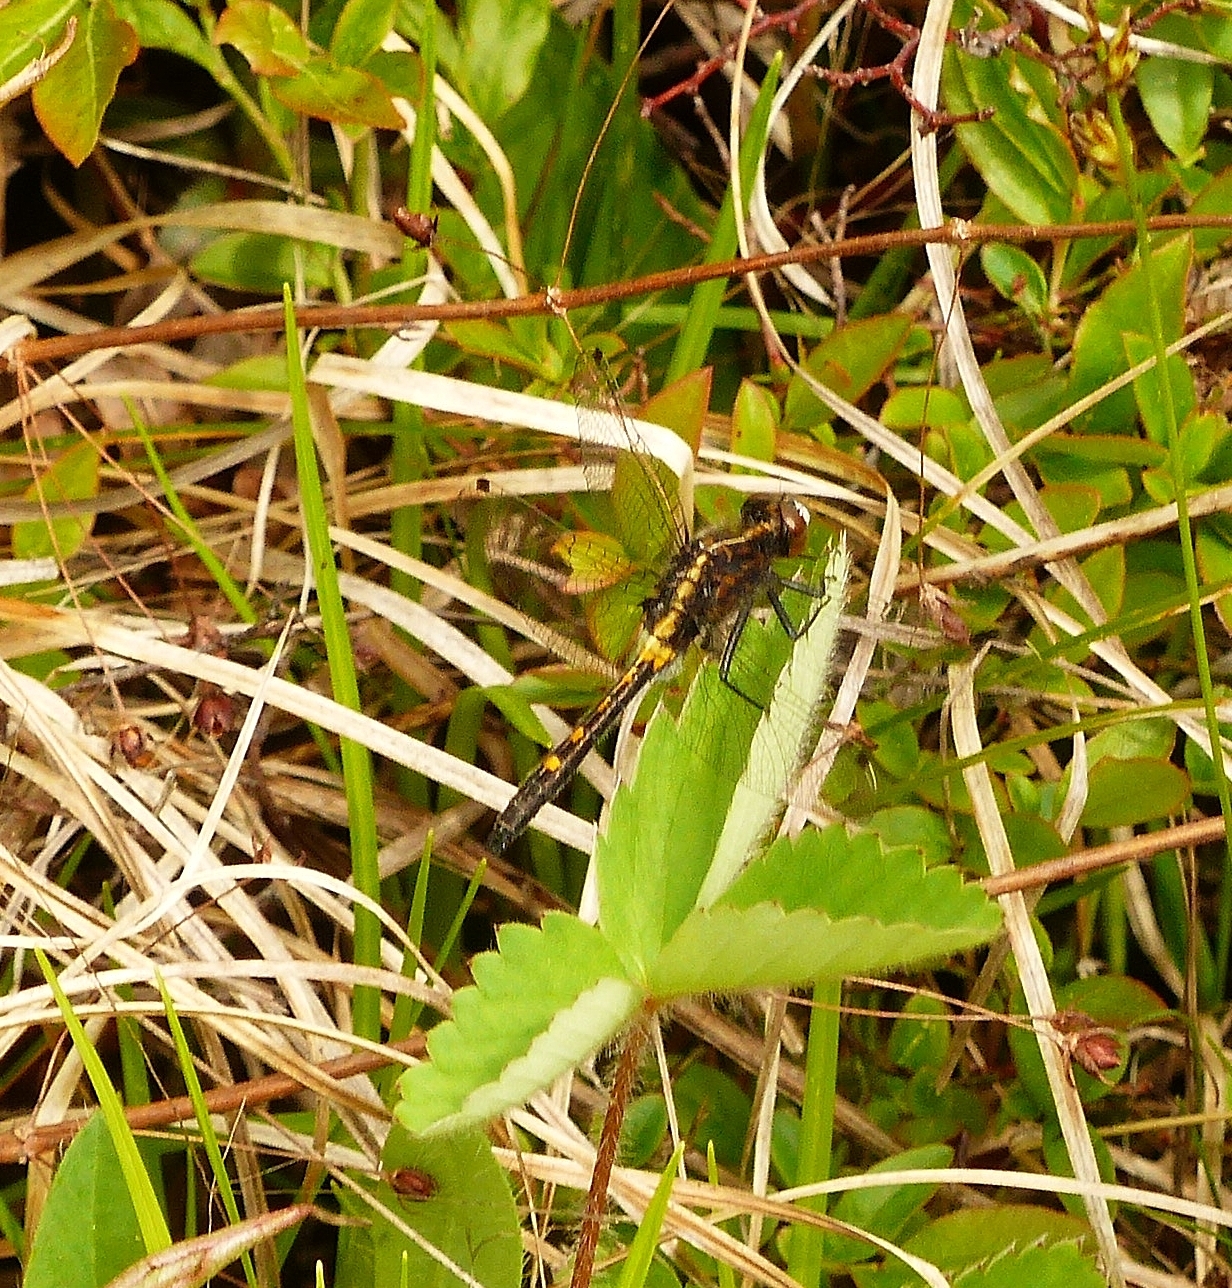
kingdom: Animalia
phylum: Arthropoda
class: Insecta
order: Odonata
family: Libellulidae
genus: Leucorrhinia
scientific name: Leucorrhinia intacta
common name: Dot-tailed whiteface
